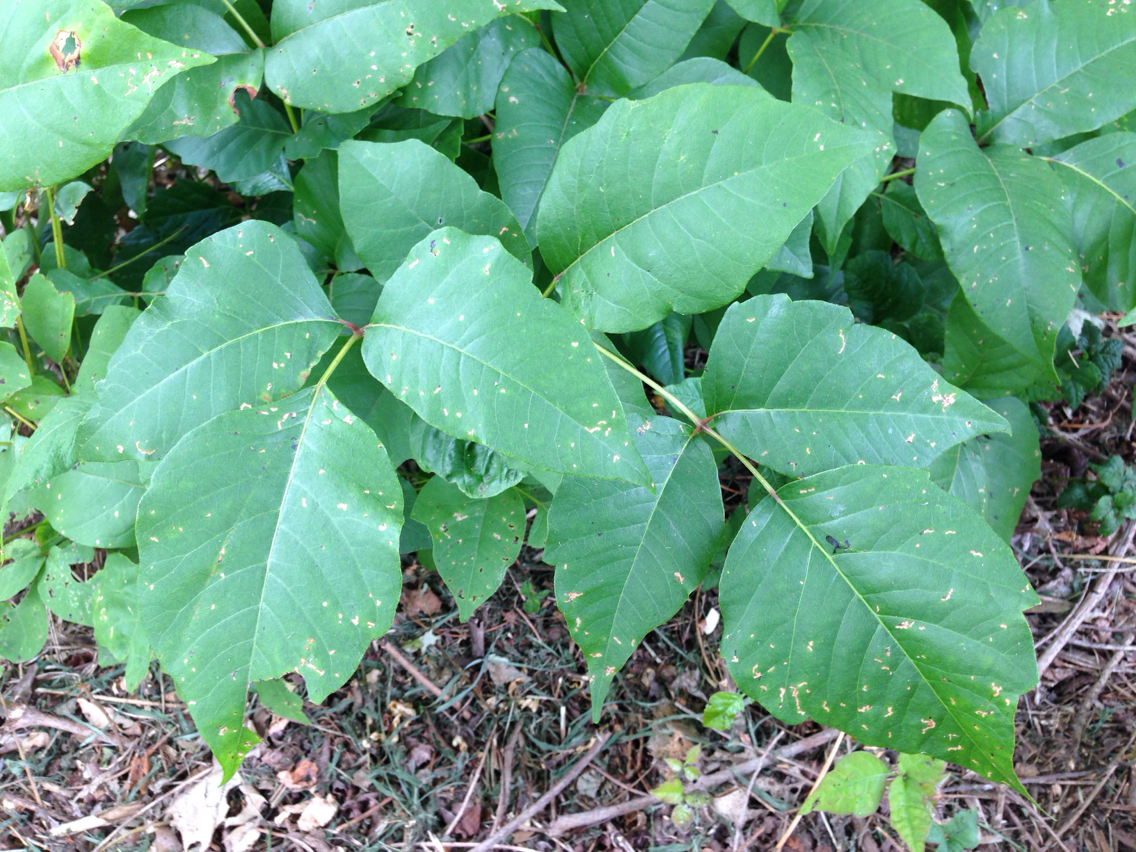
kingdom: Plantae
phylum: Tracheophyta
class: Magnoliopsida
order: Sapindales
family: Anacardiaceae
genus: Toxicodendron
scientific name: Toxicodendron radicans
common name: Poison ivy
